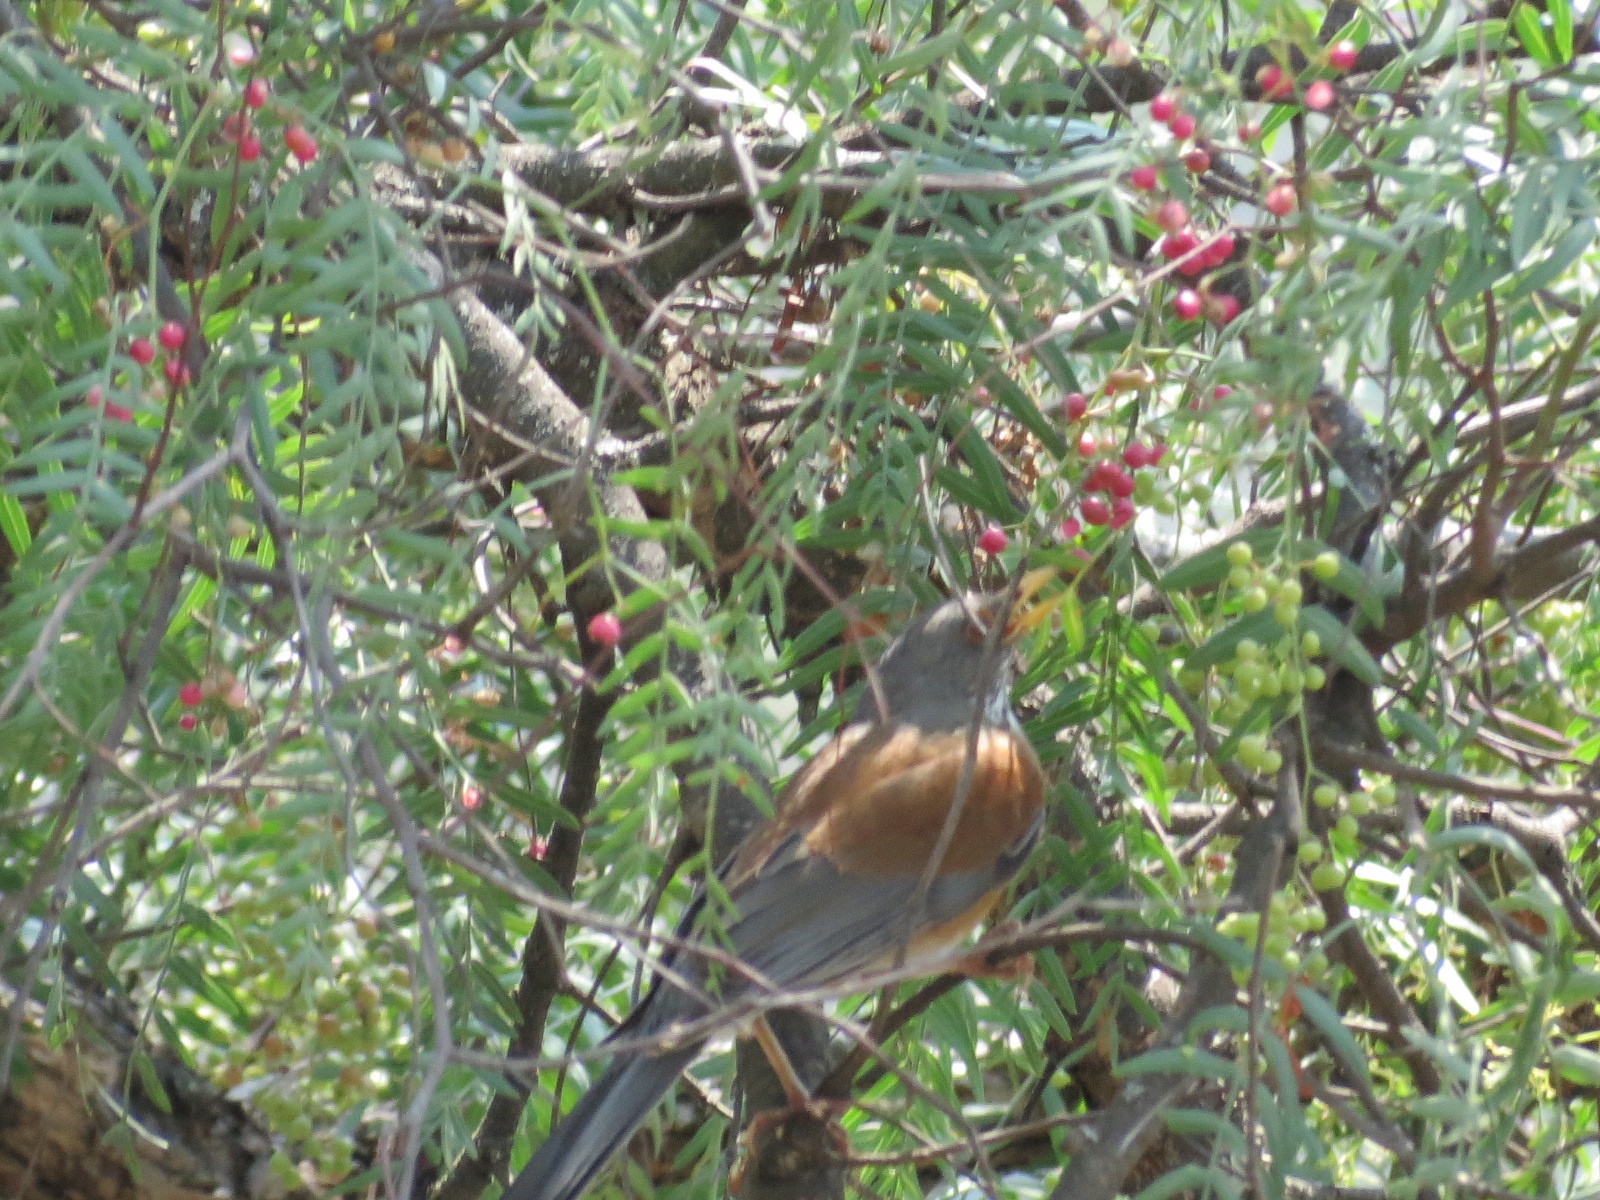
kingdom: Animalia
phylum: Chordata
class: Aves
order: Passeriformes
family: Turdidae
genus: Turdus
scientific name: Turdus rufopalliatus
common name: Rufous-backed robin
